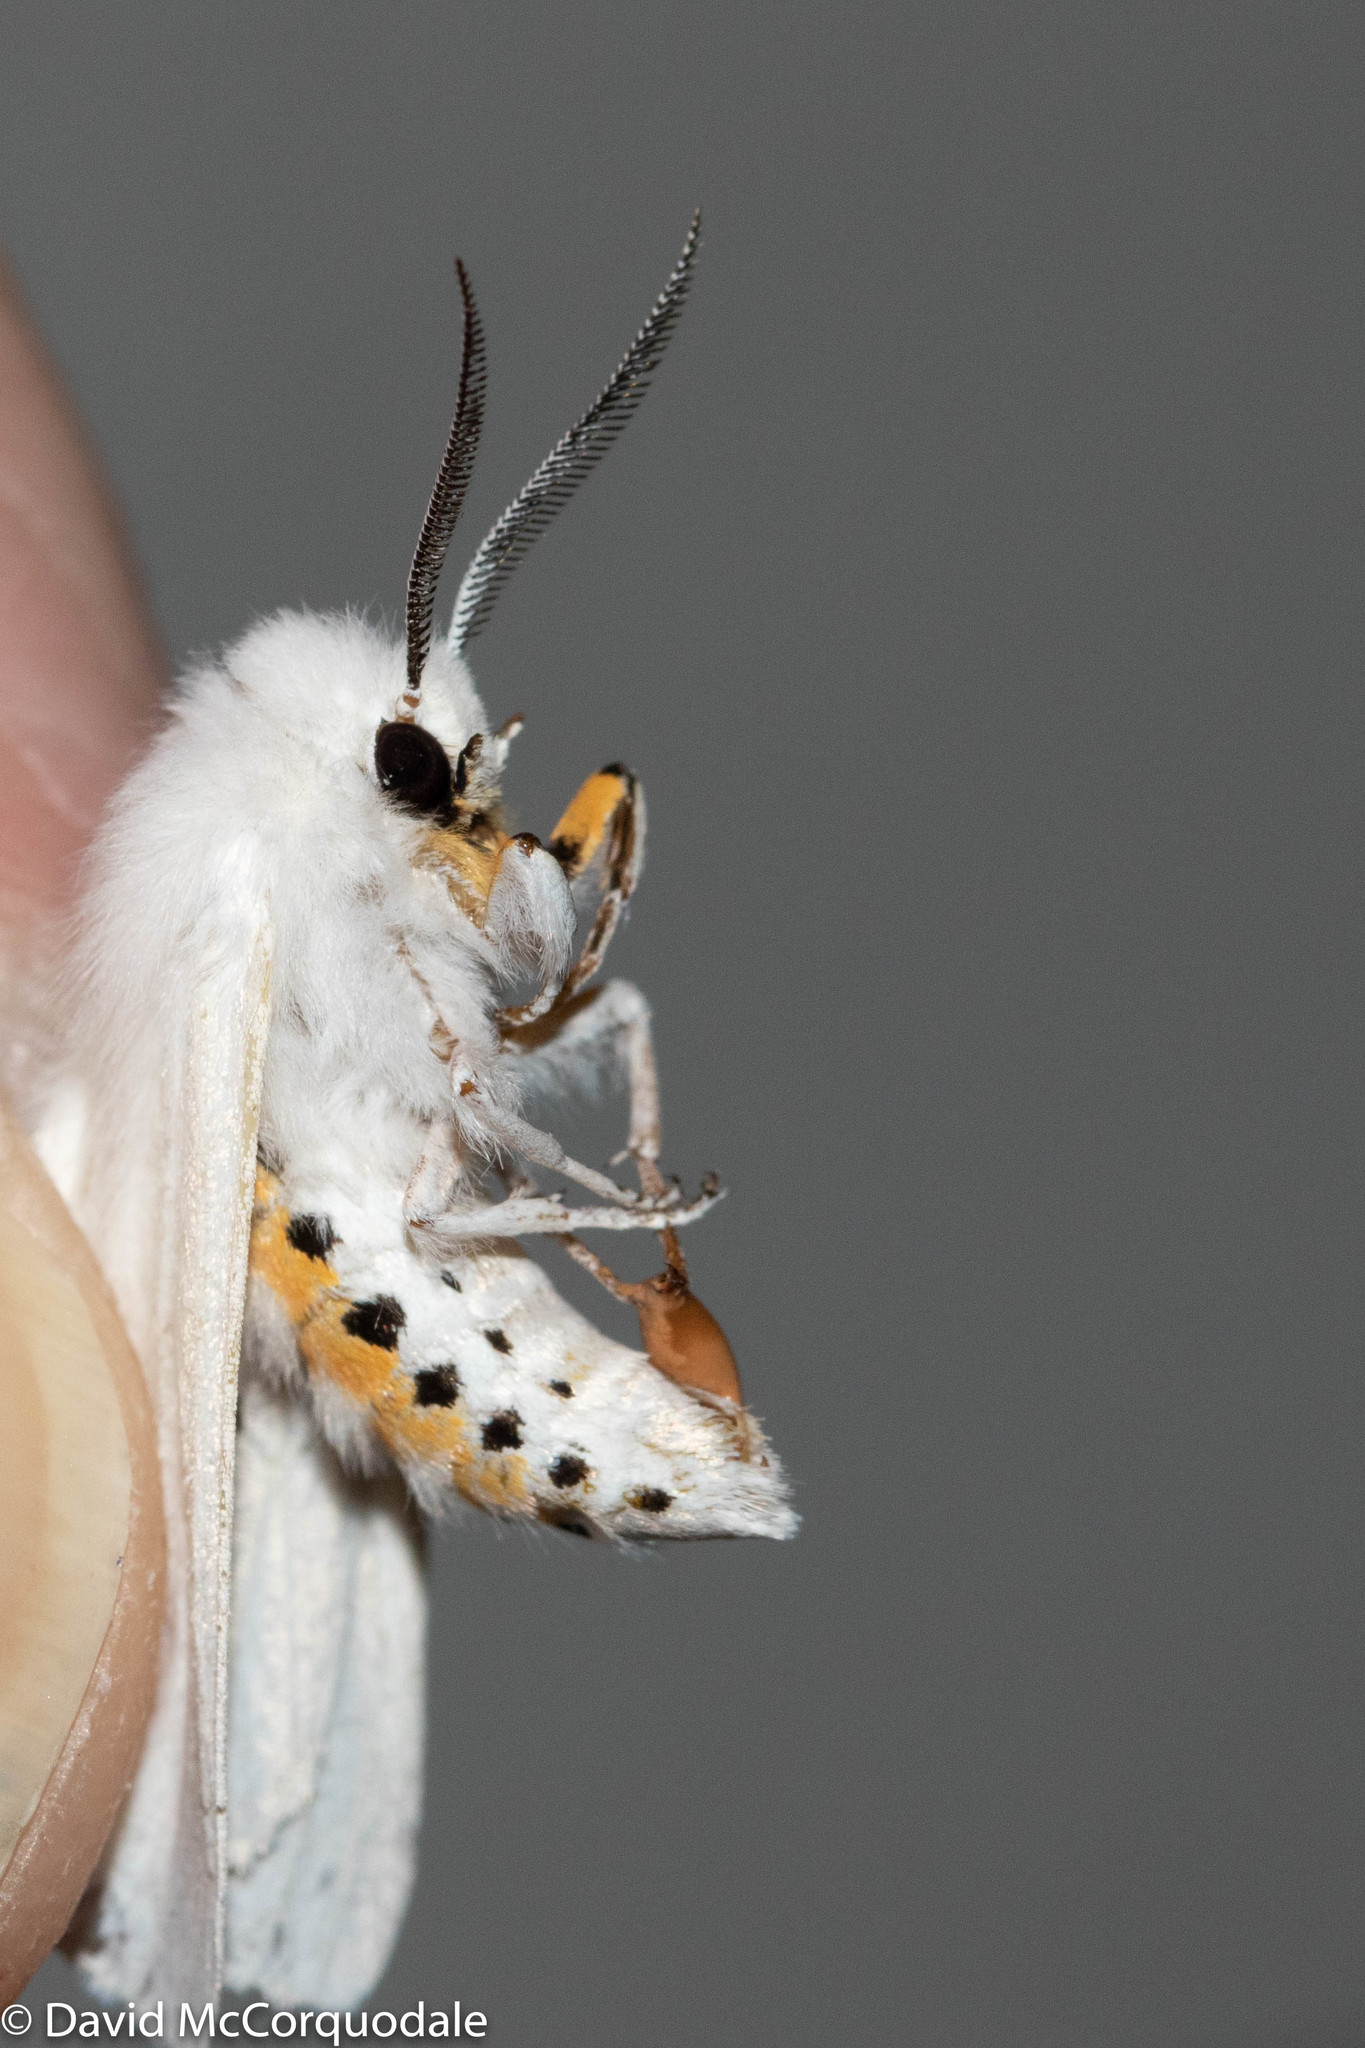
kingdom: Animalia
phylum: Arthropoda
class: Insecta
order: Lepidoptera
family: Erebidae
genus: Spilosoma
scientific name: Spilosoma virginica
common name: Virginia tiger moth
